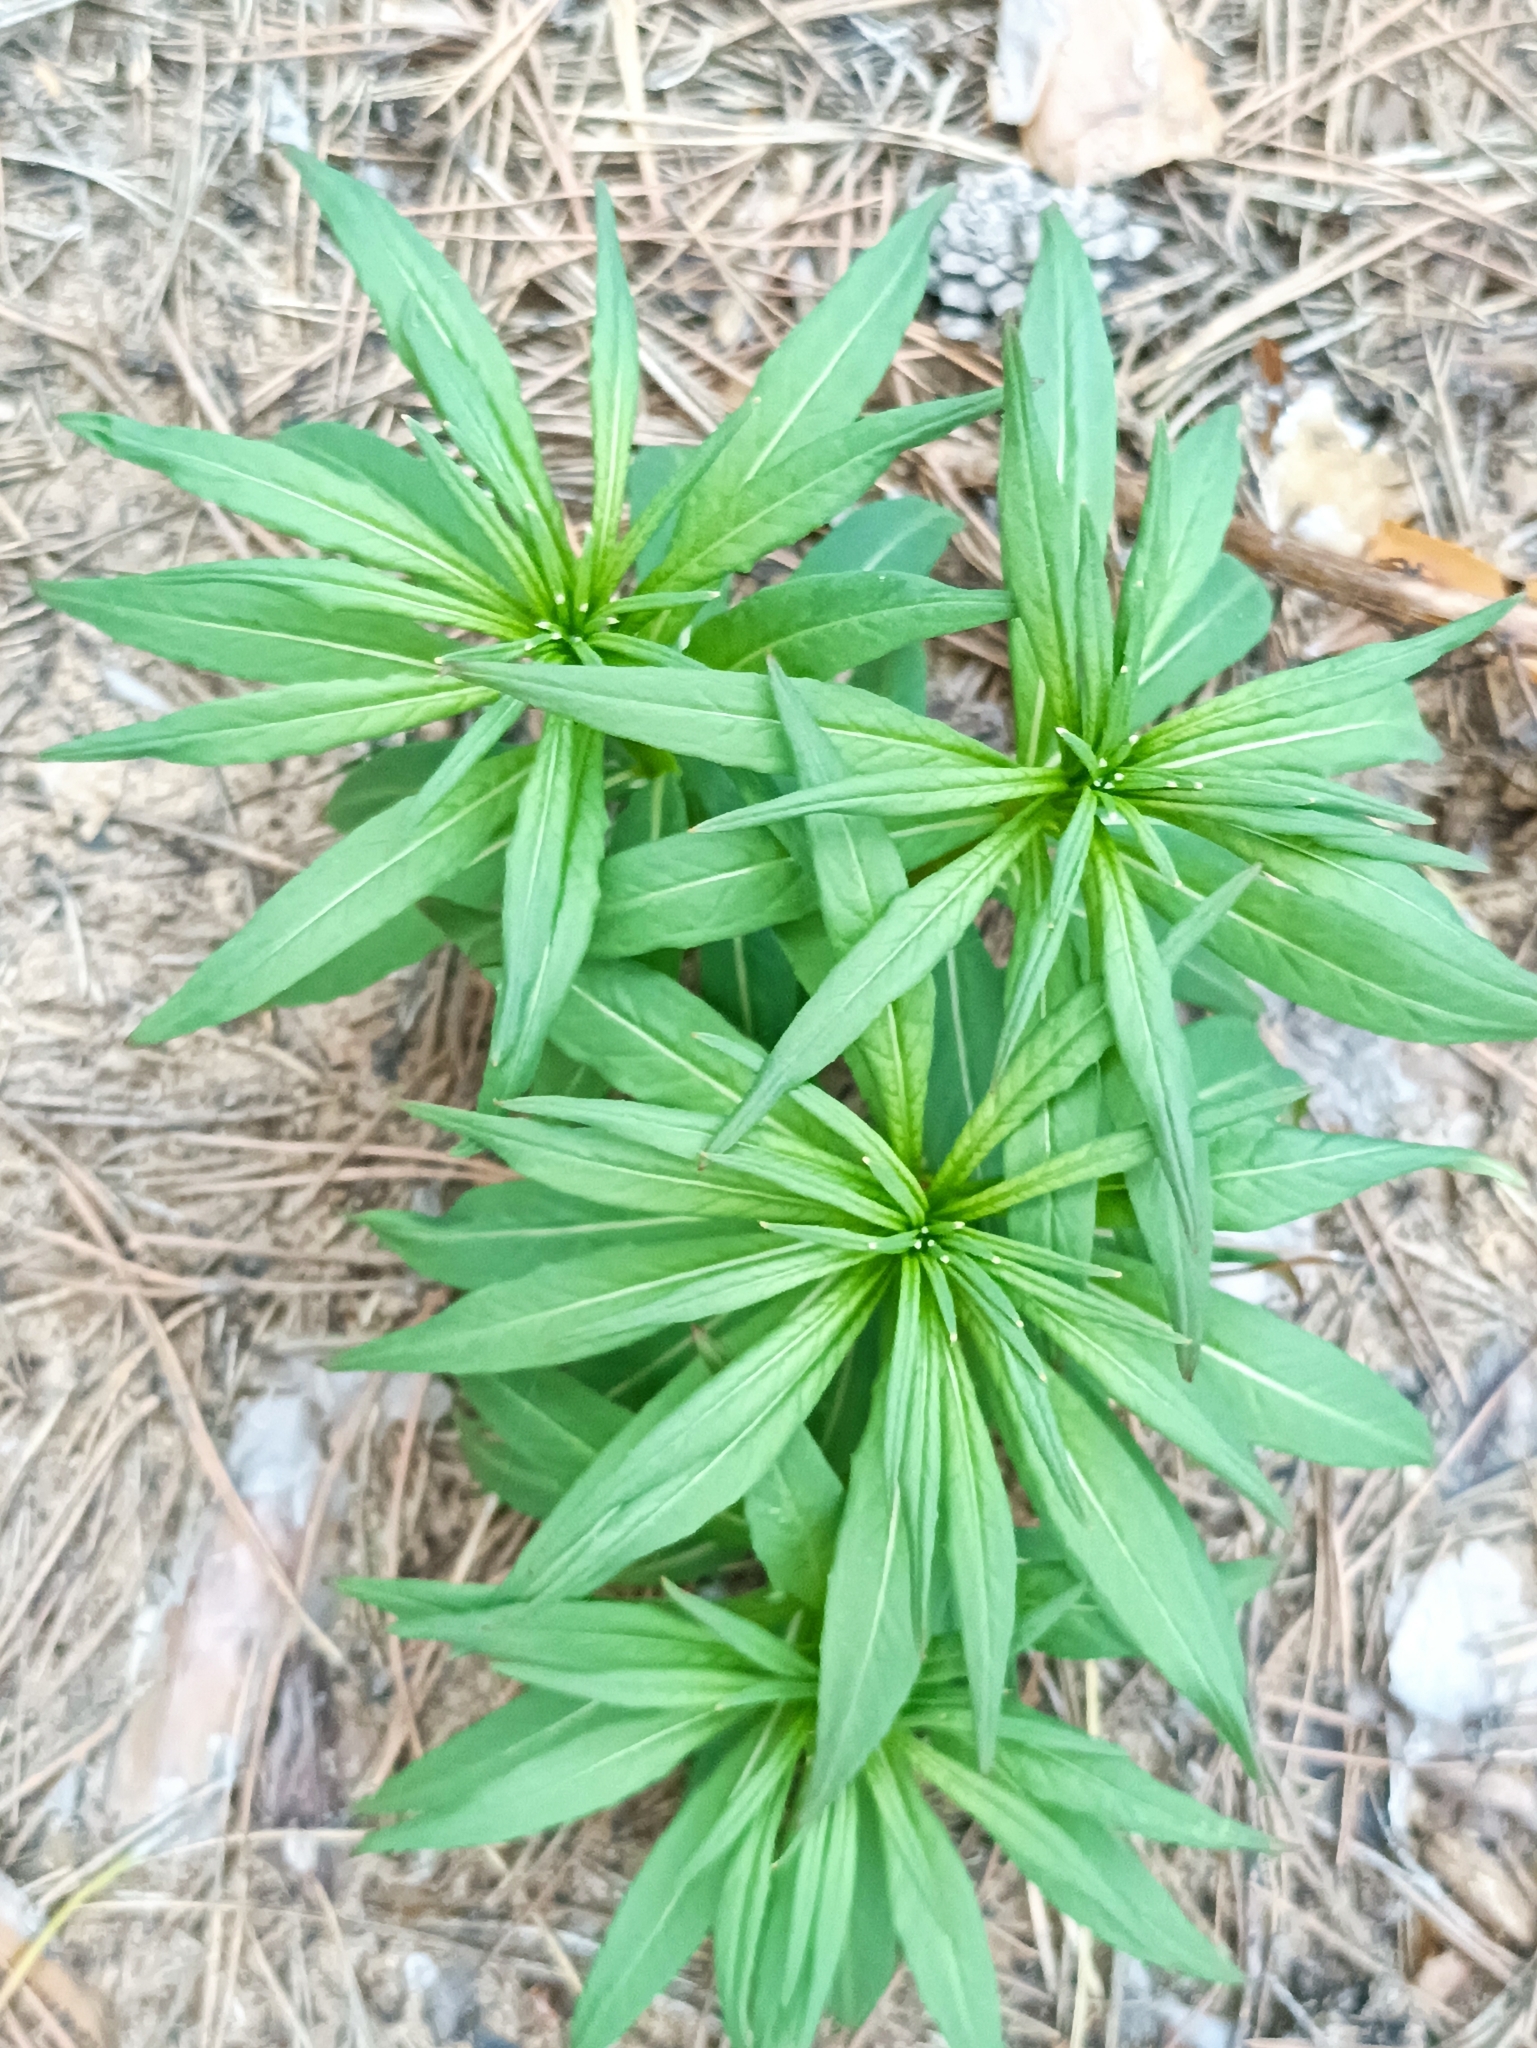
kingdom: Plantae
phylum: Tracheophyta
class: Magnoliopsida
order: Myrtales
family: Onagraceae
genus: Chamaenerion
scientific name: Chamaenerion angustifolium
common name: Fireweed
